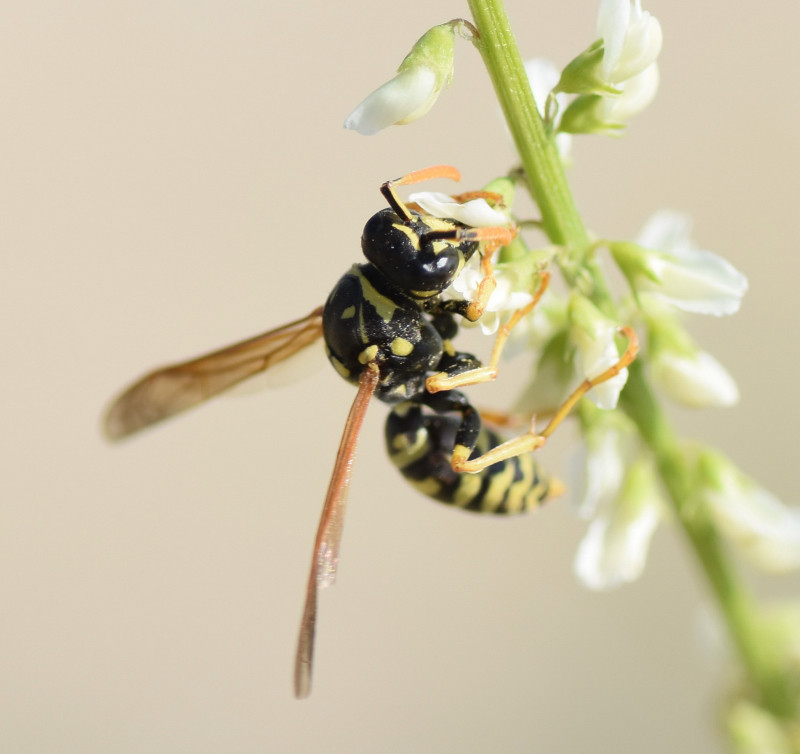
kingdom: Animalia
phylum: Arthropoda
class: Insecta
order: Hymenoptera
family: Eumenidae
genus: Polistes
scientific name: Polistes dominula
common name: Paper wasp
